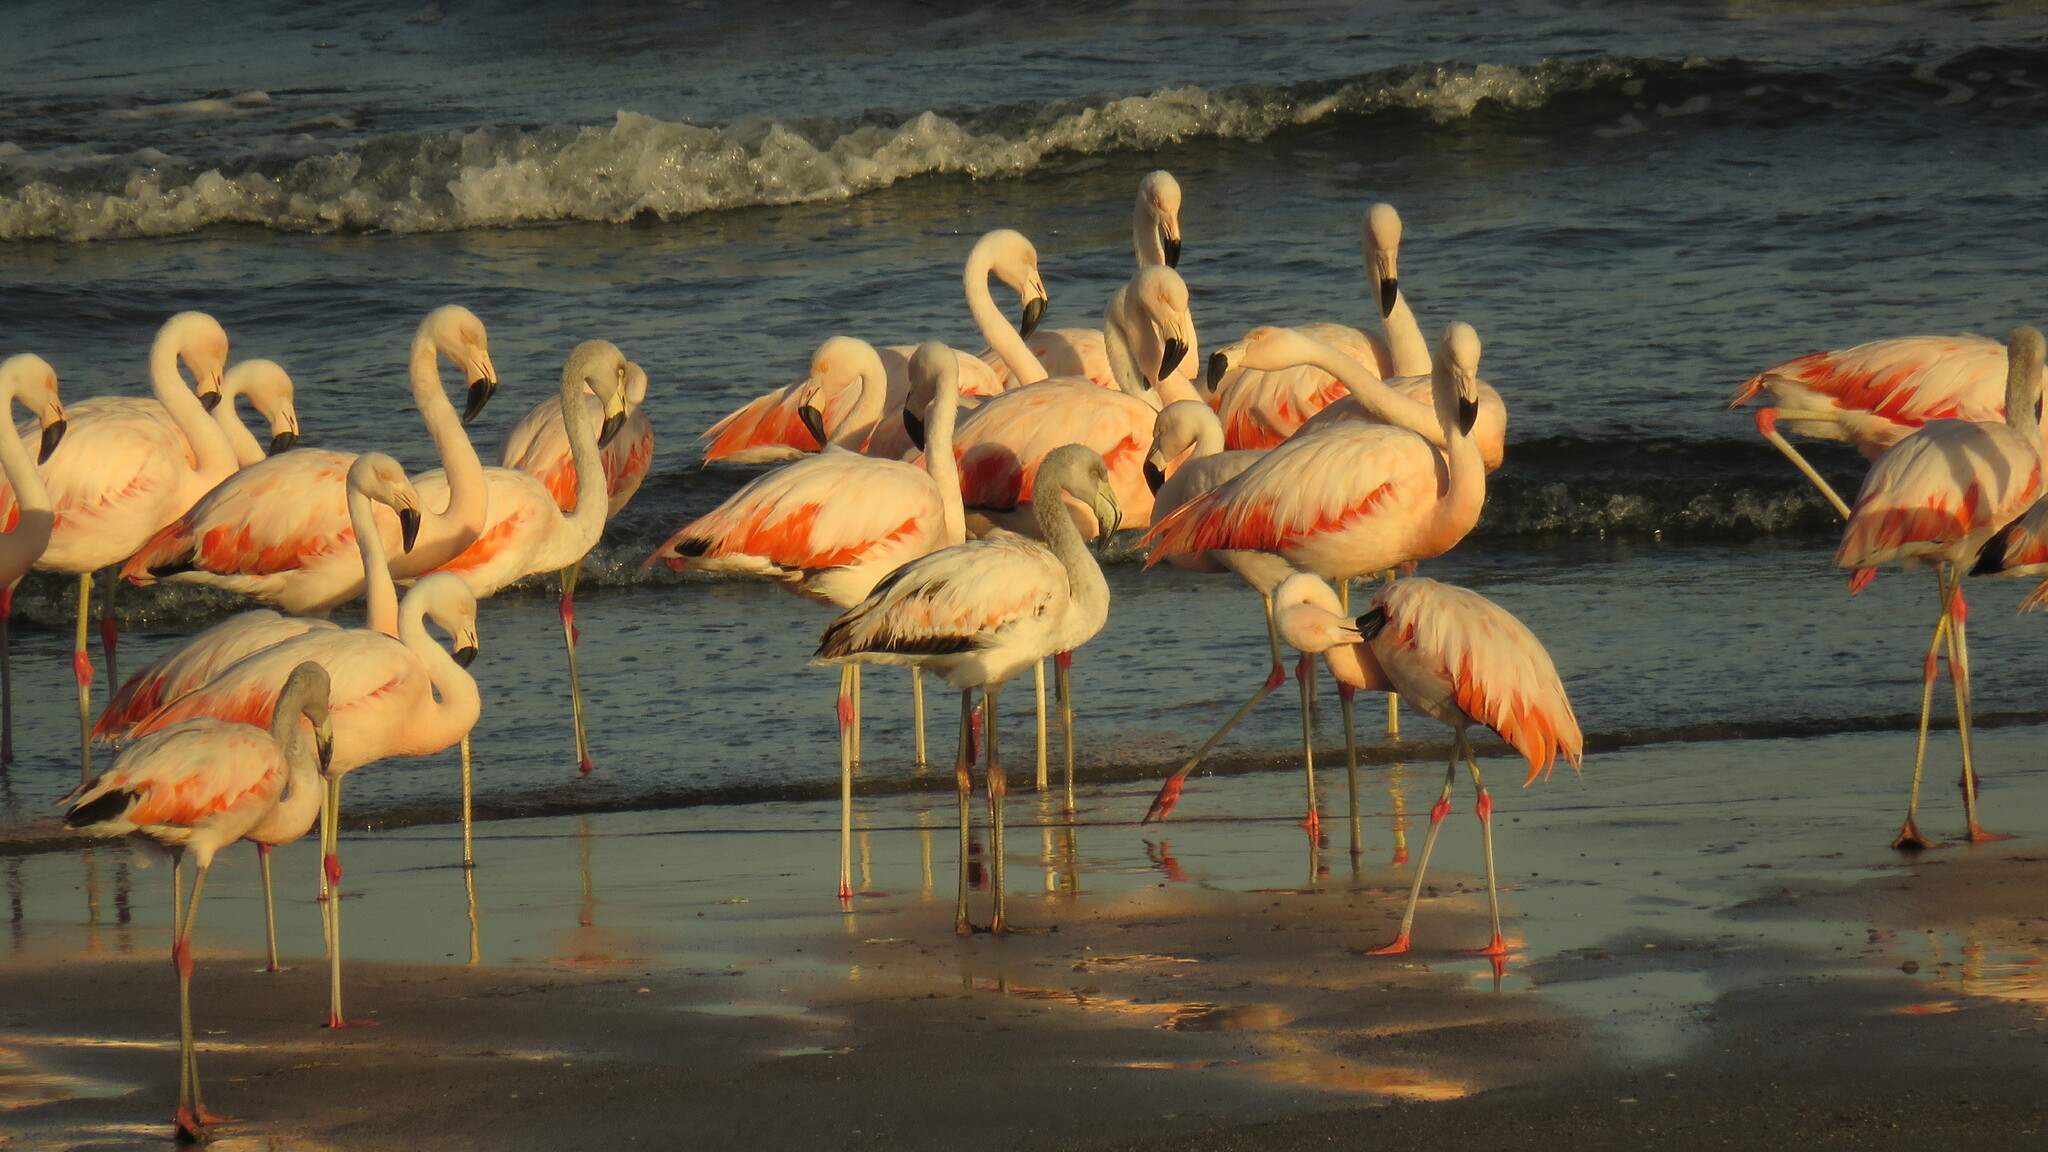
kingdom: Animalia
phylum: Chordata
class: Aves
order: Phoenicopteriformes
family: Phoenicopteridae
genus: Phoenicopterus
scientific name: Phoenicopterus chilensis
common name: Chilean flamingo
